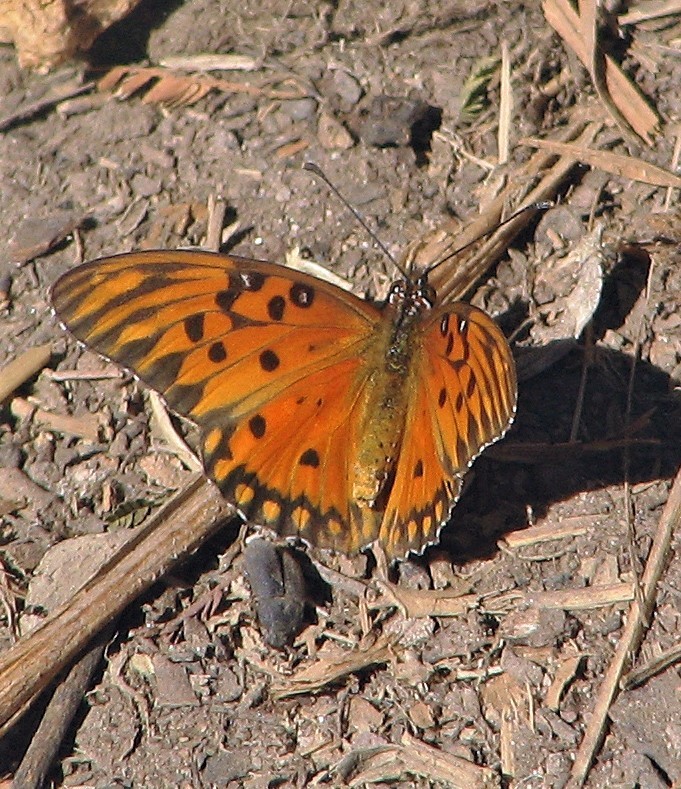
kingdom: Animalia
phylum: Arthropoda
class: Insecta
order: Lepidoptera
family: Nymphalidae
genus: Dione
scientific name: Dione vanillae
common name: Gulf fritillary
